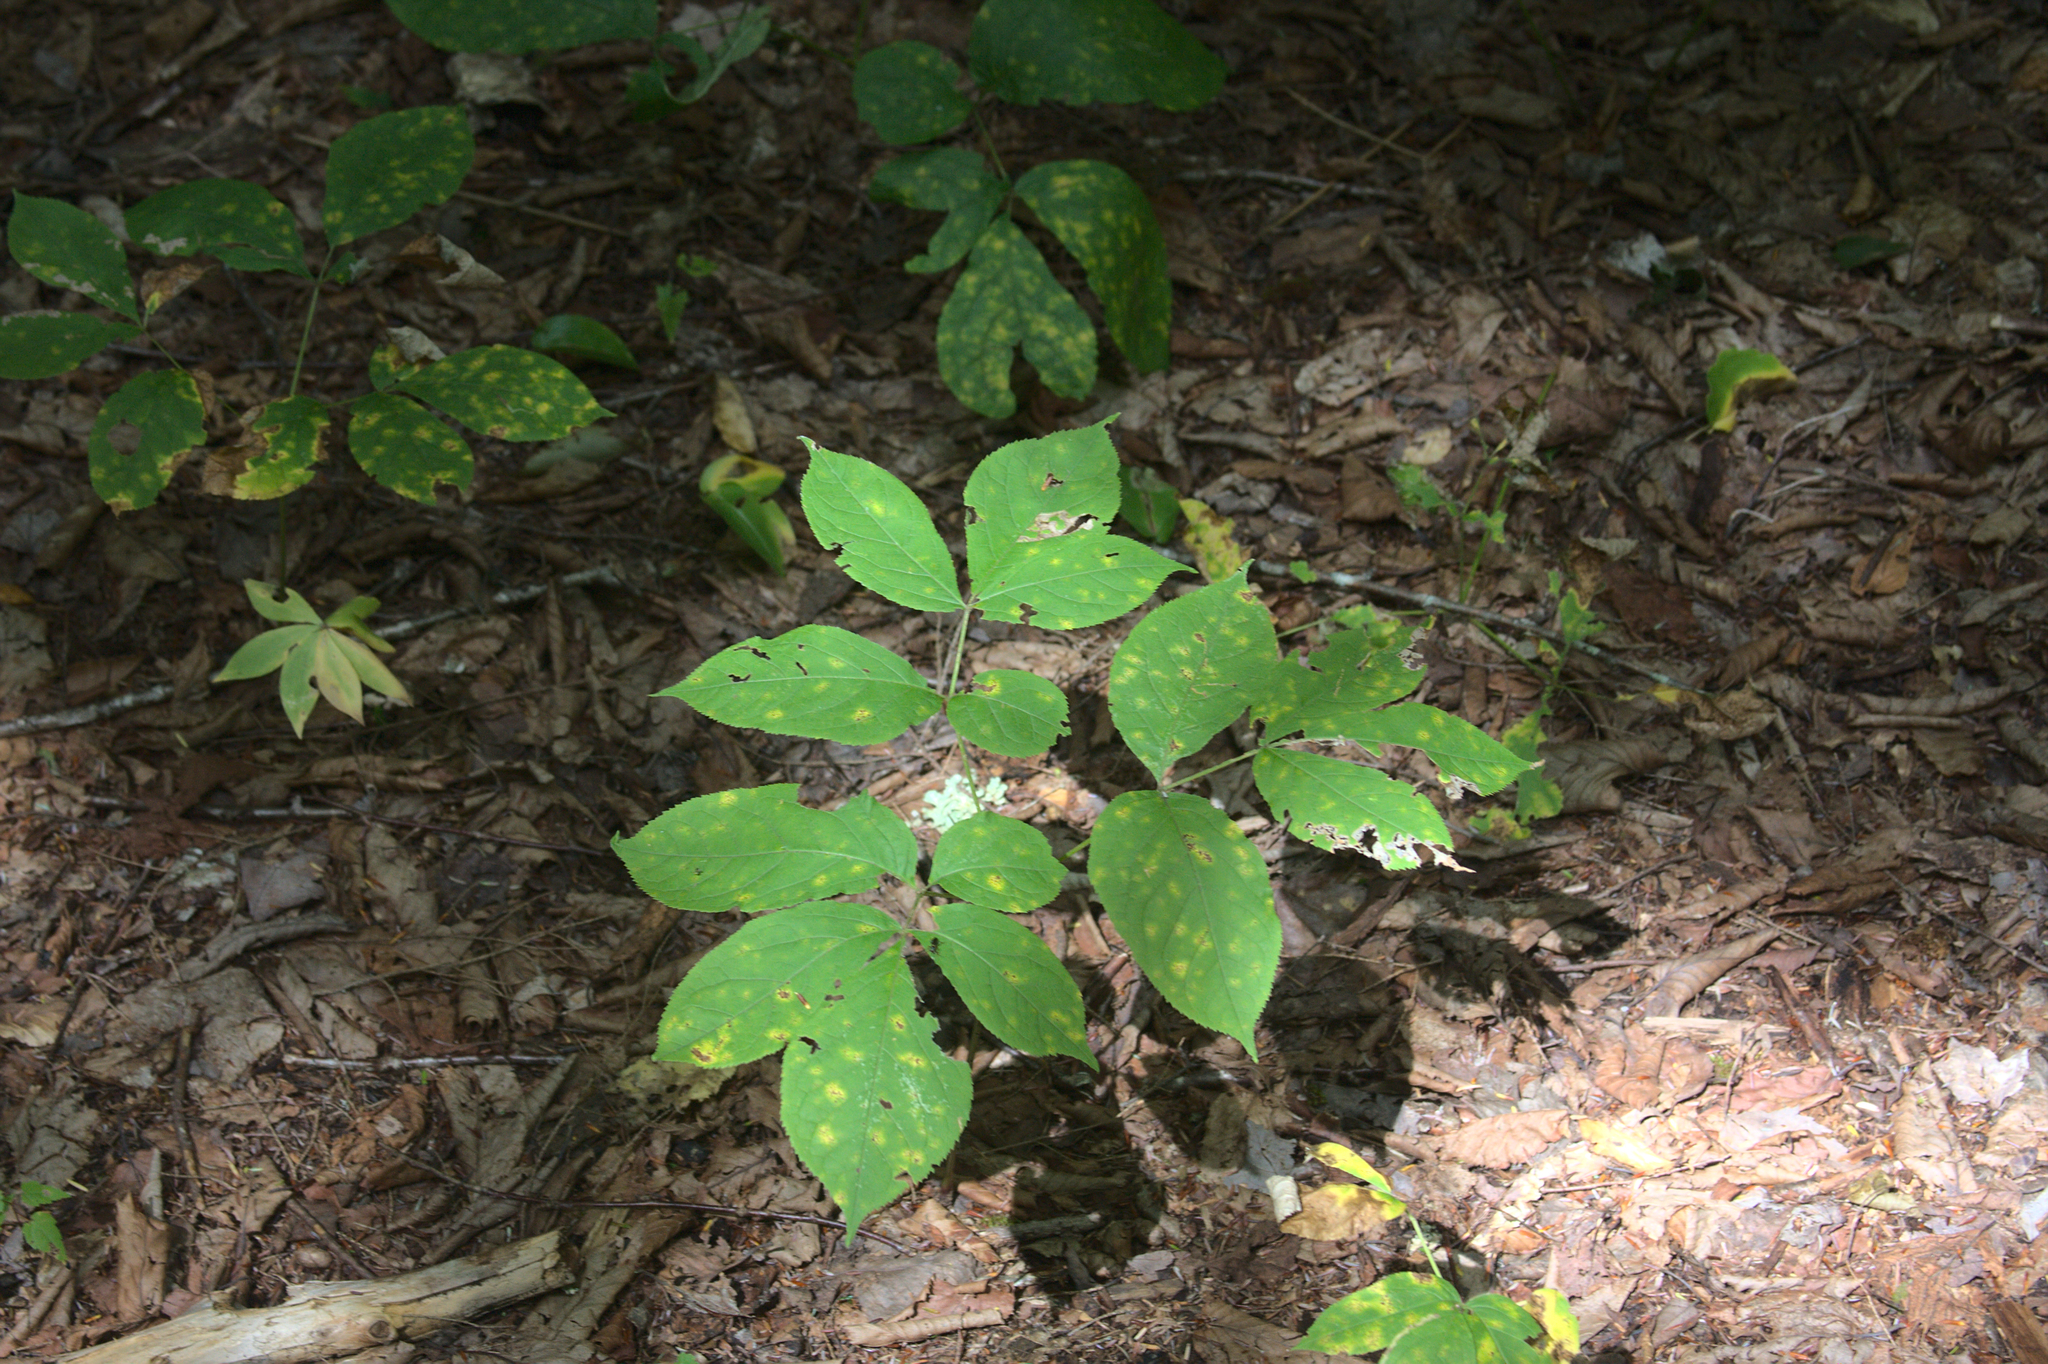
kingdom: Plantae
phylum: Tracheophyta
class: Magnoliopsida
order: Apiales
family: Araliaceae
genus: Aralia
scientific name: Aralia nudicaulis
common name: Wild sarsaparilla
